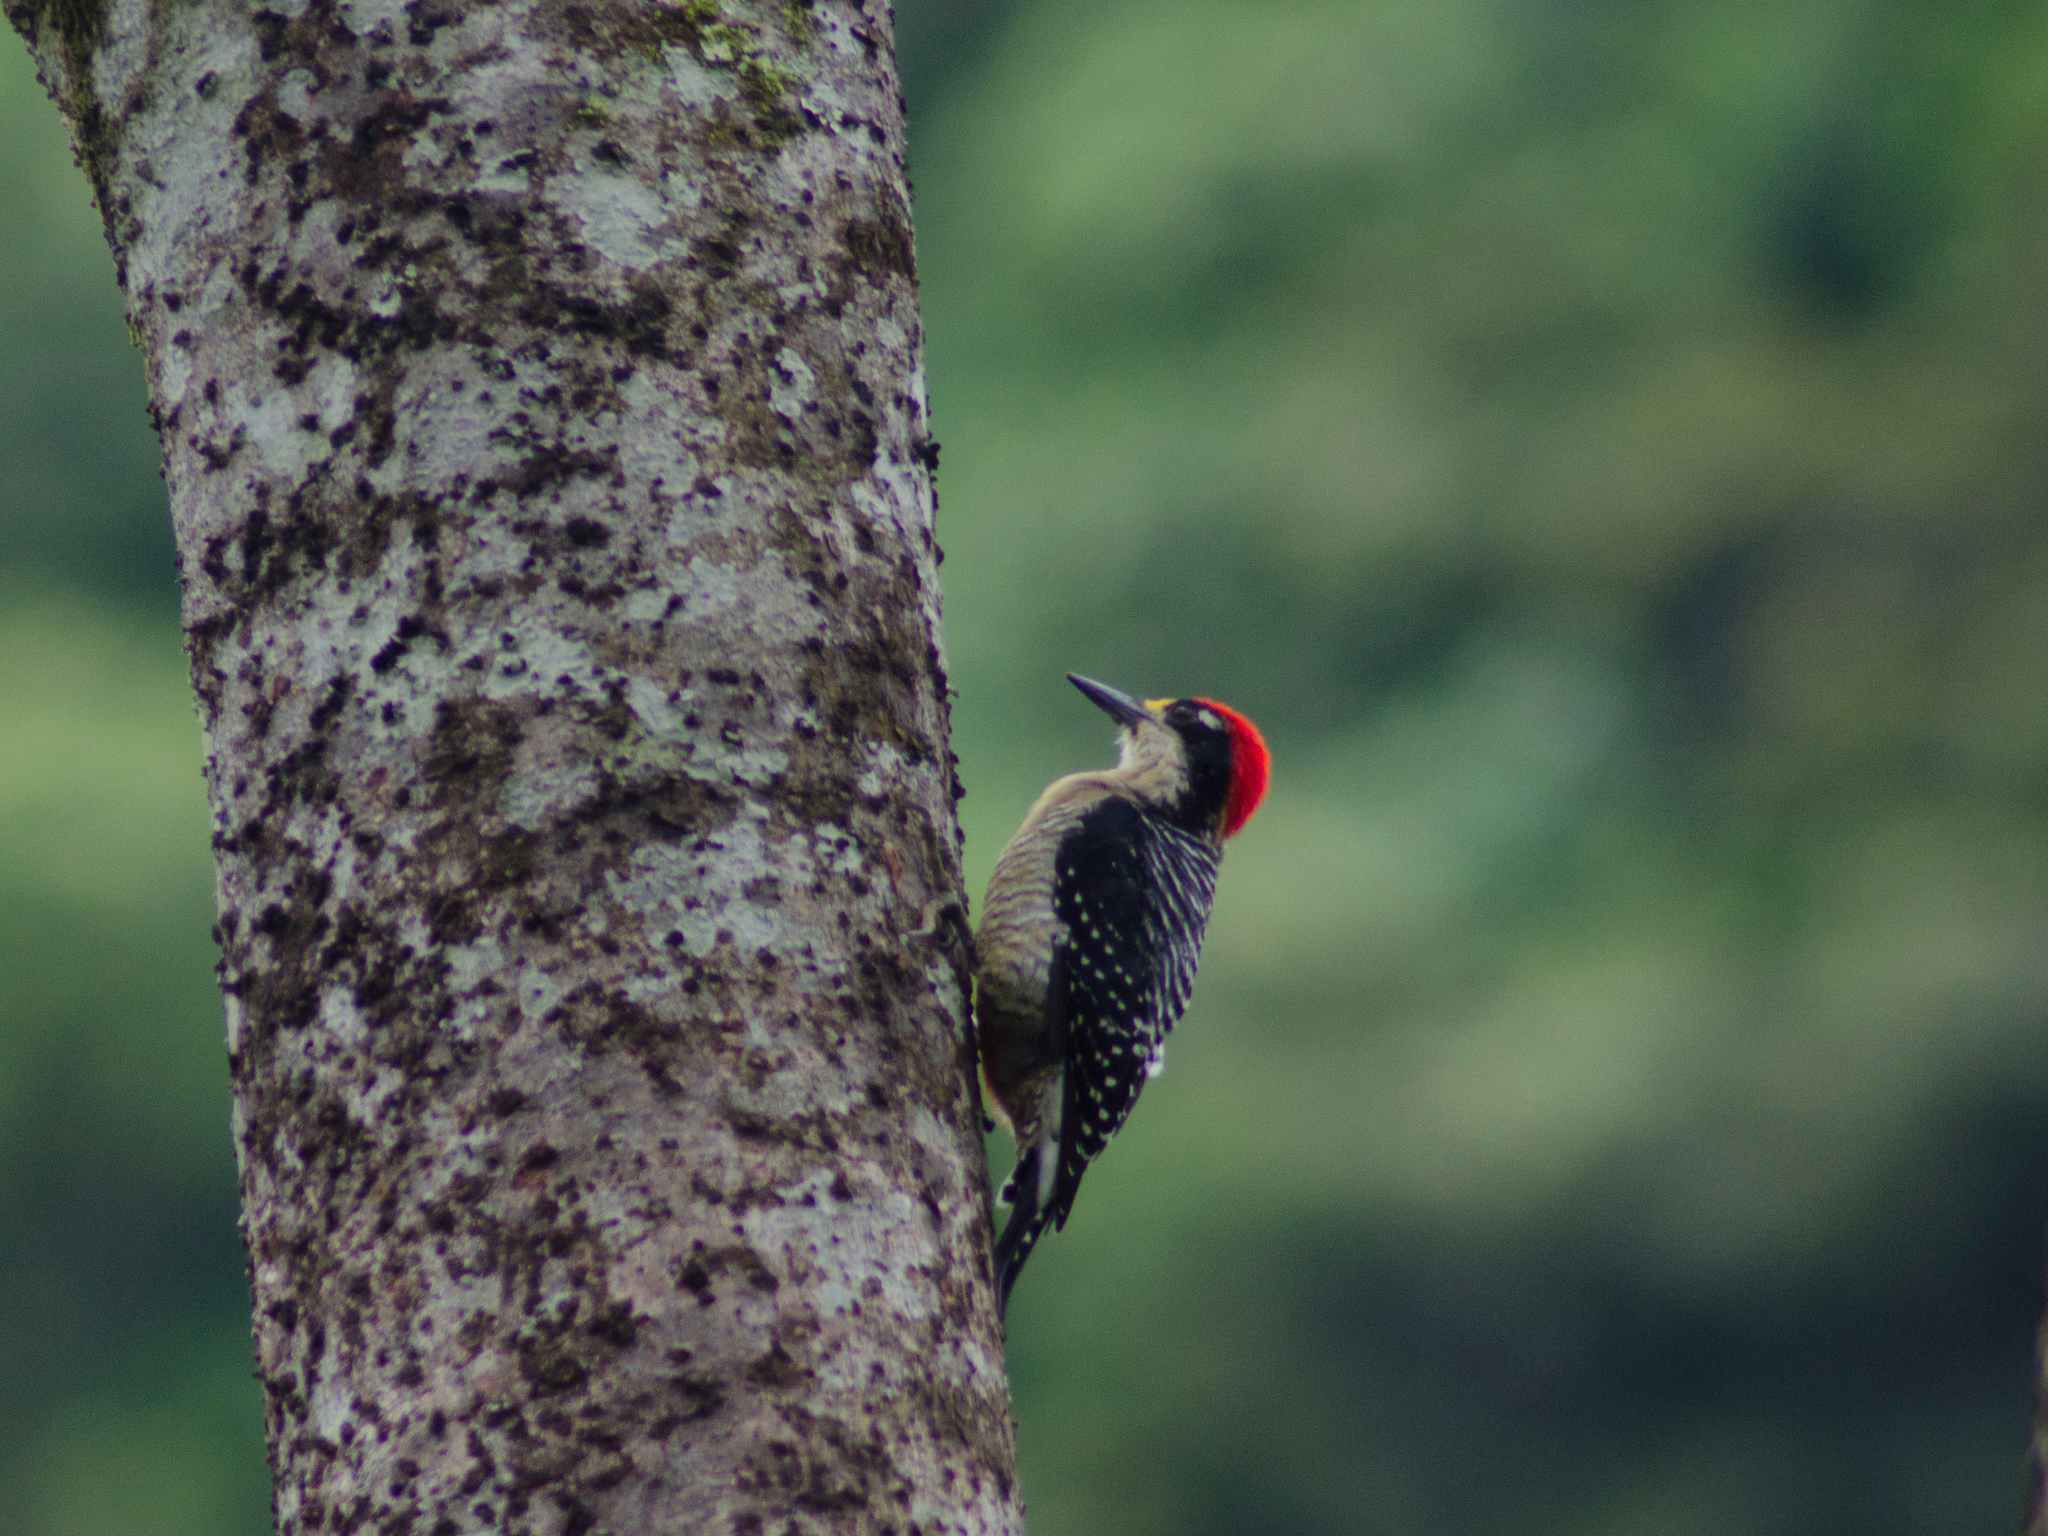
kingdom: Animalia
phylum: Chordata
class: Aves
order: Piciformes
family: Picidae
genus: Melanerpes
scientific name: Melanerpes pucherani
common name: Black-cheeked woodpecker
